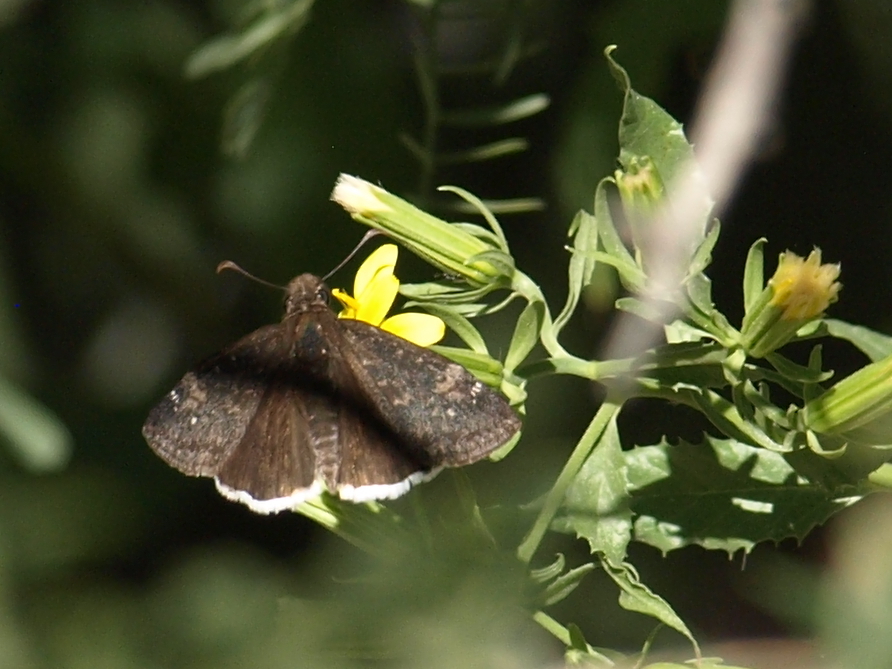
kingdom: Animalia
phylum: Arthropoda
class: Insecta
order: Lepidoptera
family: Hesperiidae
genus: Erynnis
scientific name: Erynnis funeralis
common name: Funereal duskywing
